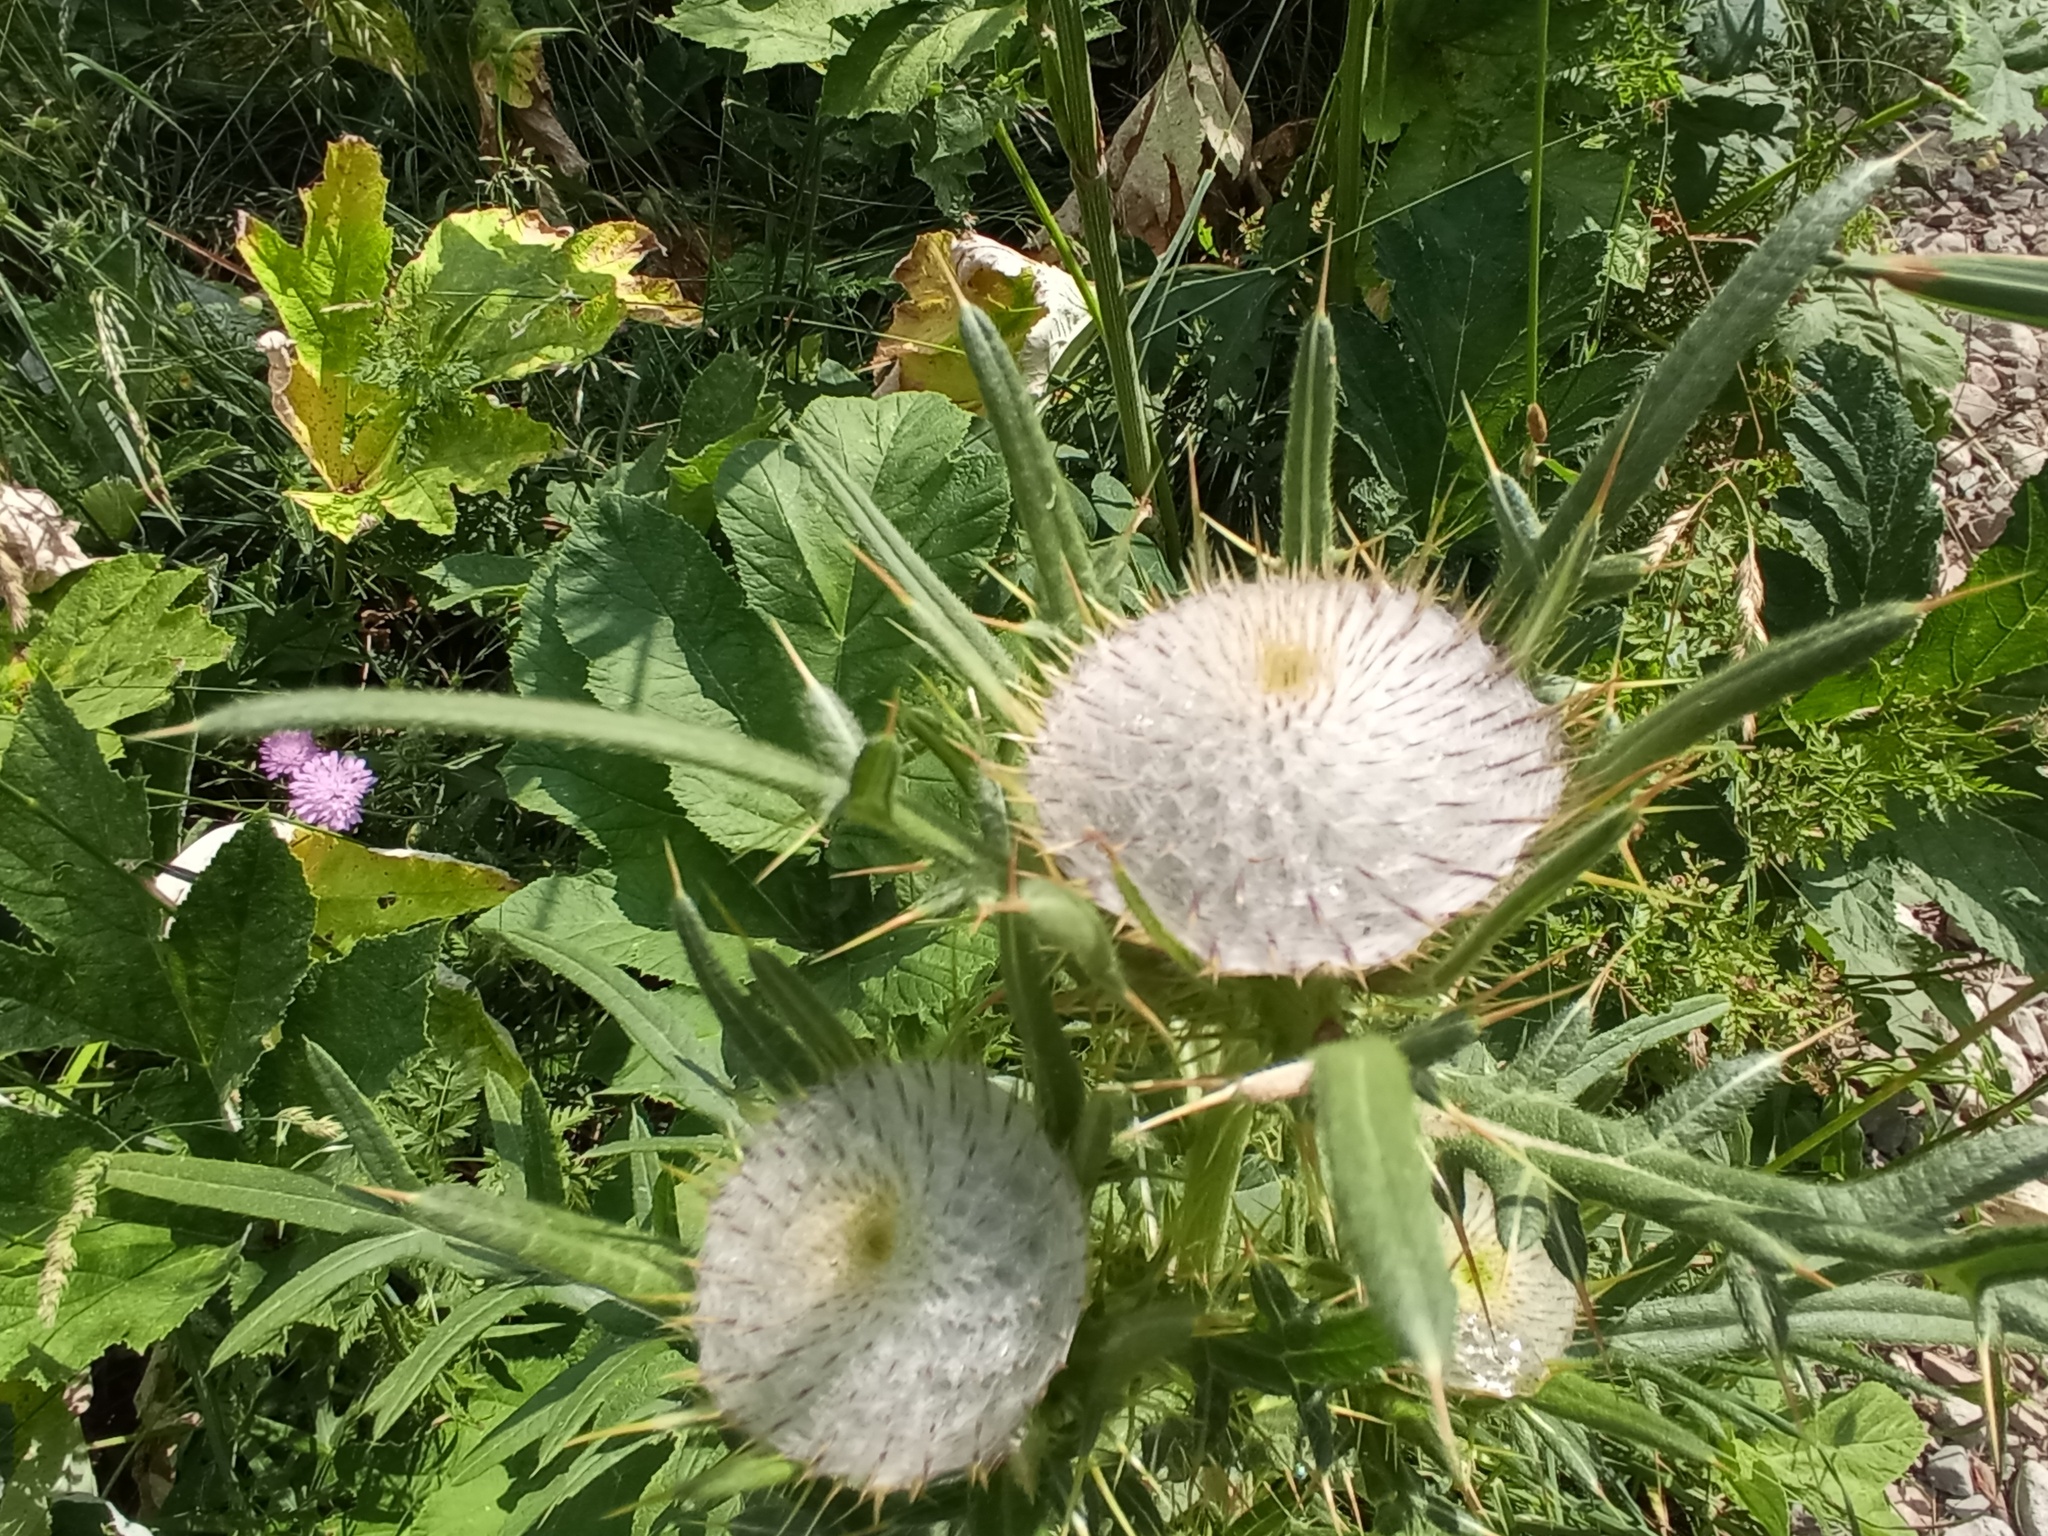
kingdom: Plantae
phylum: Tracheophyta
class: Magnoliopsida
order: Asterales
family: Asteraceae
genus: Lophiolepis
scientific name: Lophiolepis eriophora
